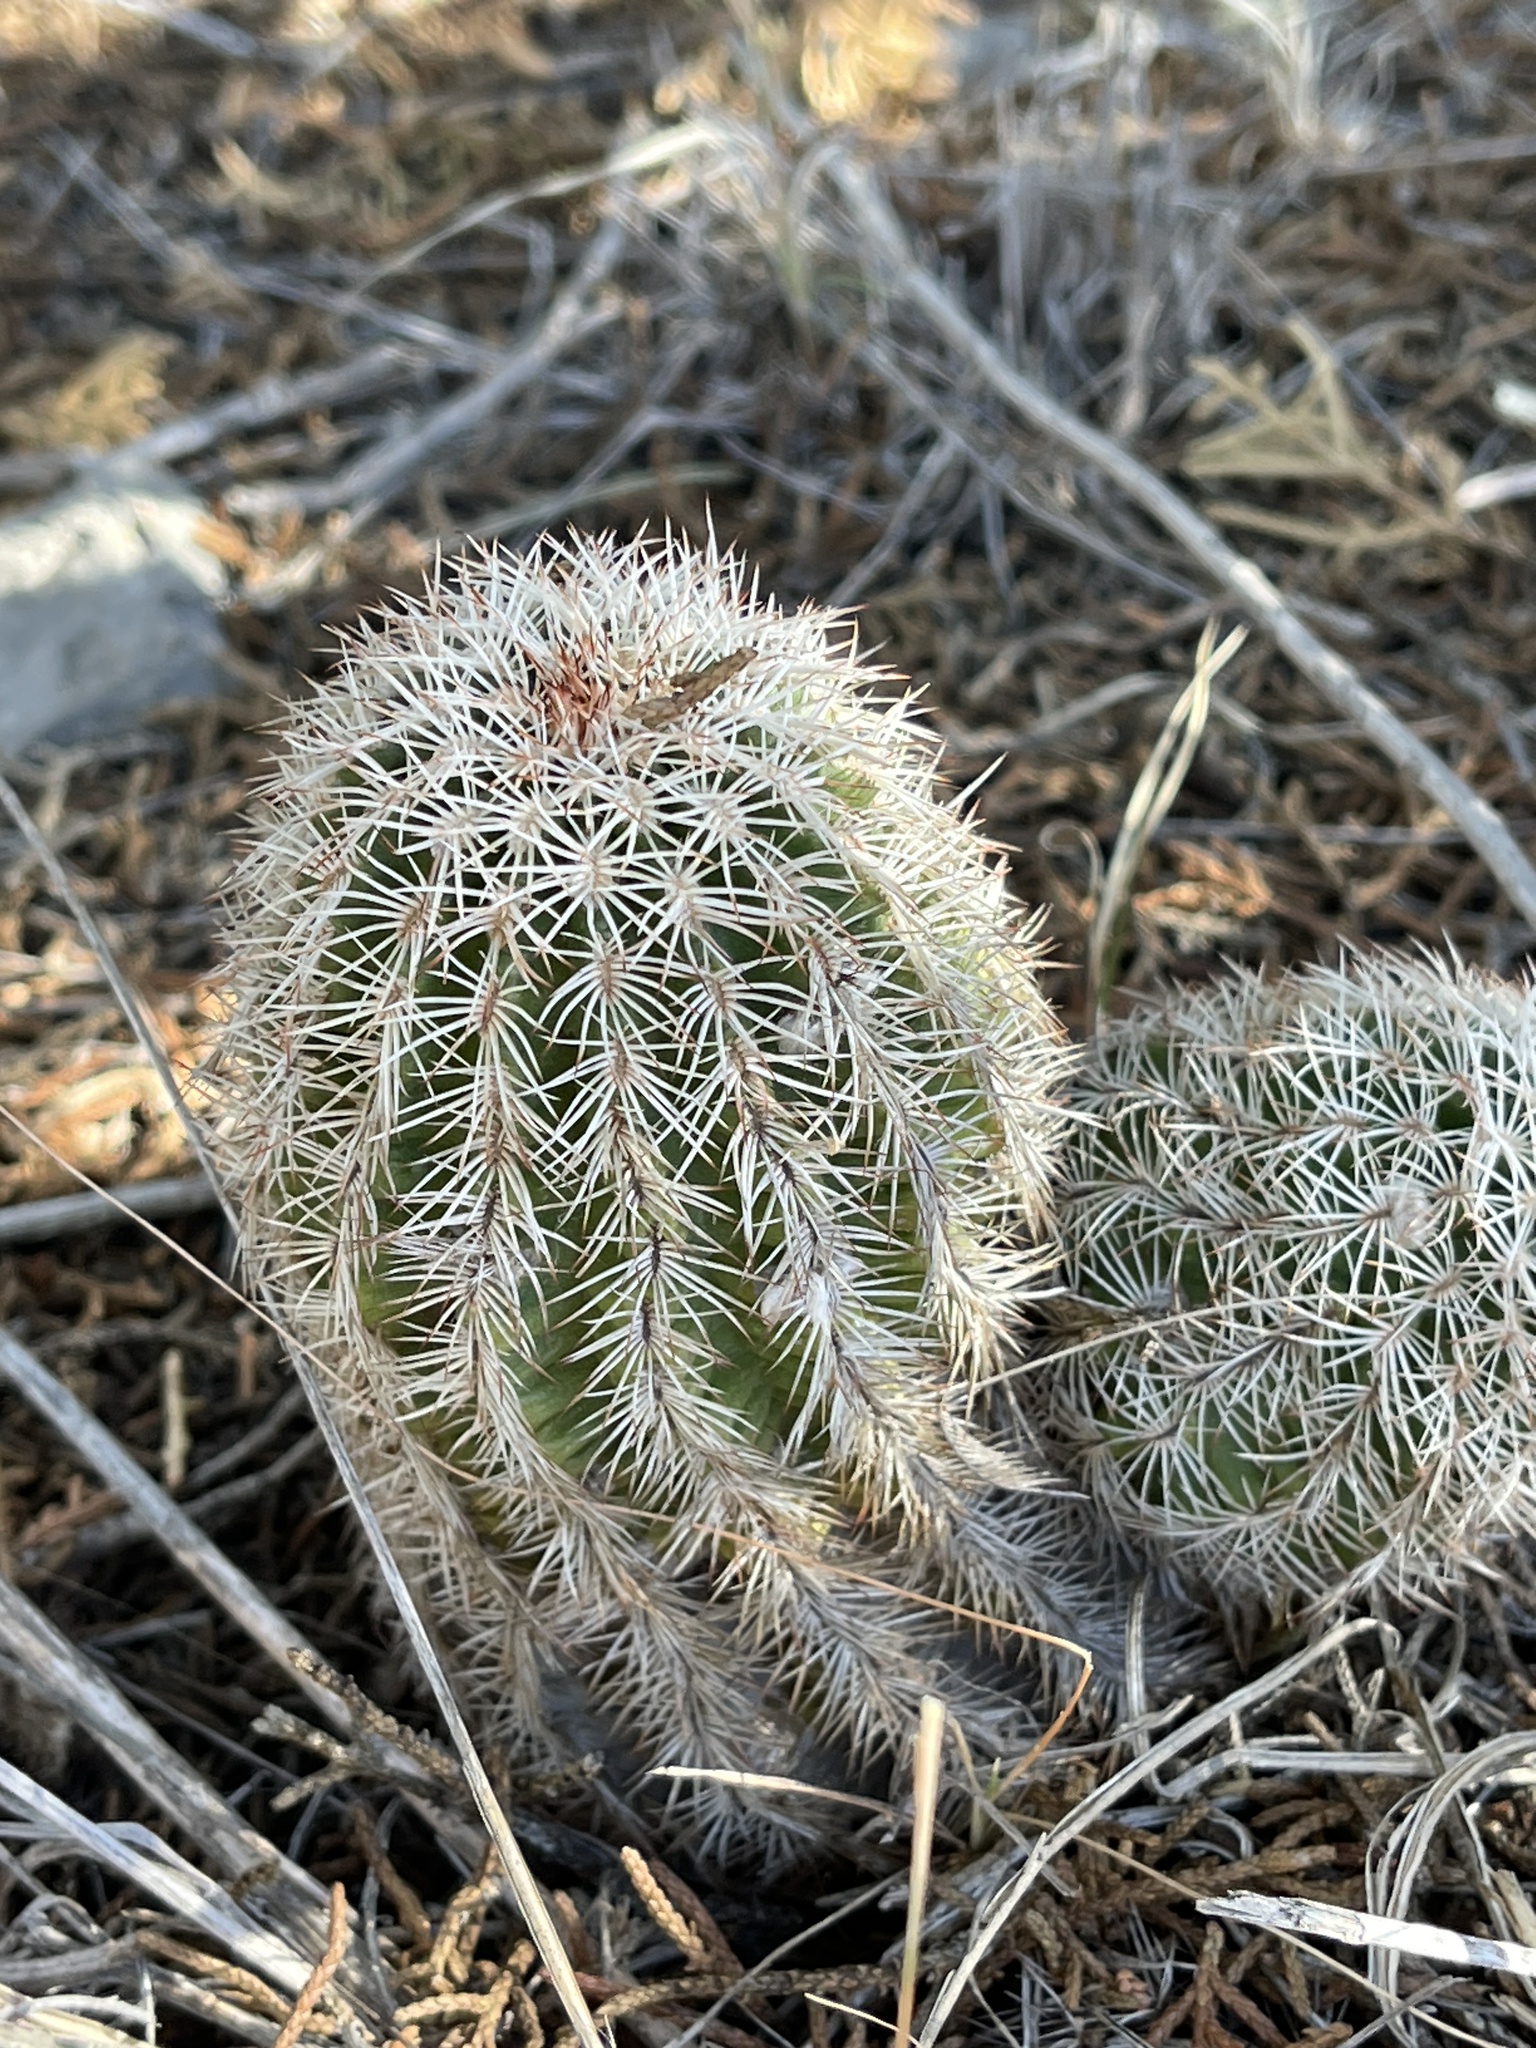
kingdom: Plantae
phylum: Tracheophyta
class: Magnoliopsida
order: Caryophyllales
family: Cactaceae
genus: Echinocereus
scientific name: Echinocereus reichenbachii
